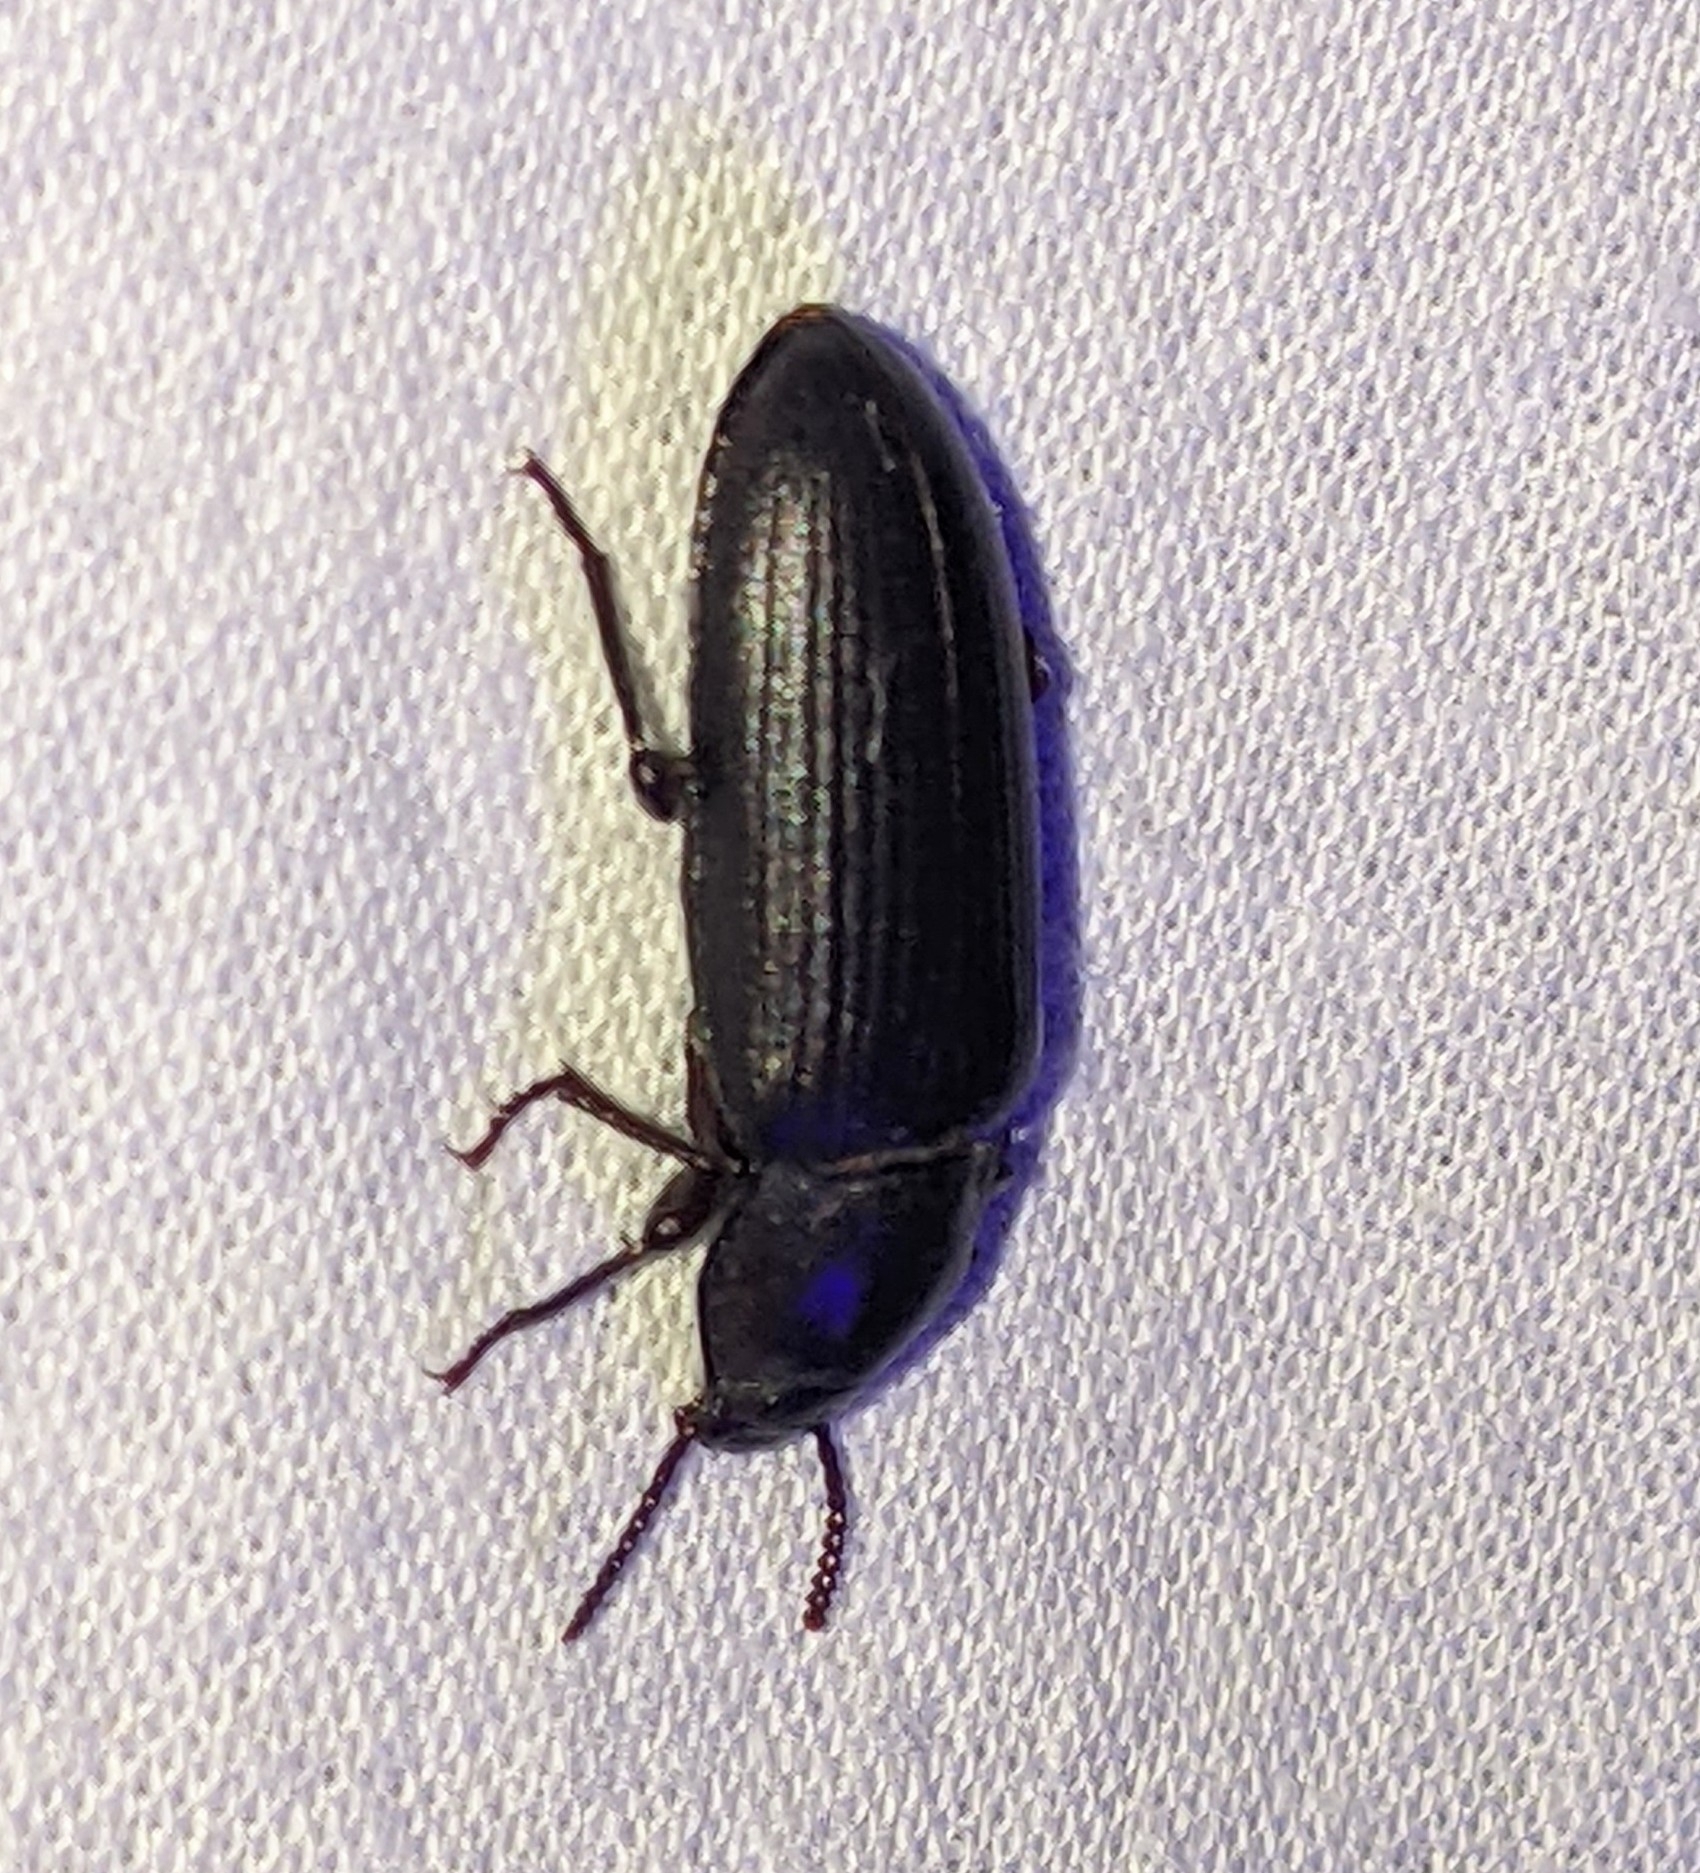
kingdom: Animalia
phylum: Arthropoda
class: Insecta
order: Coleoptera
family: Tenebrionidae
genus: Tenebrio
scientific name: Tenebrio molitor
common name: Hardback beetle
